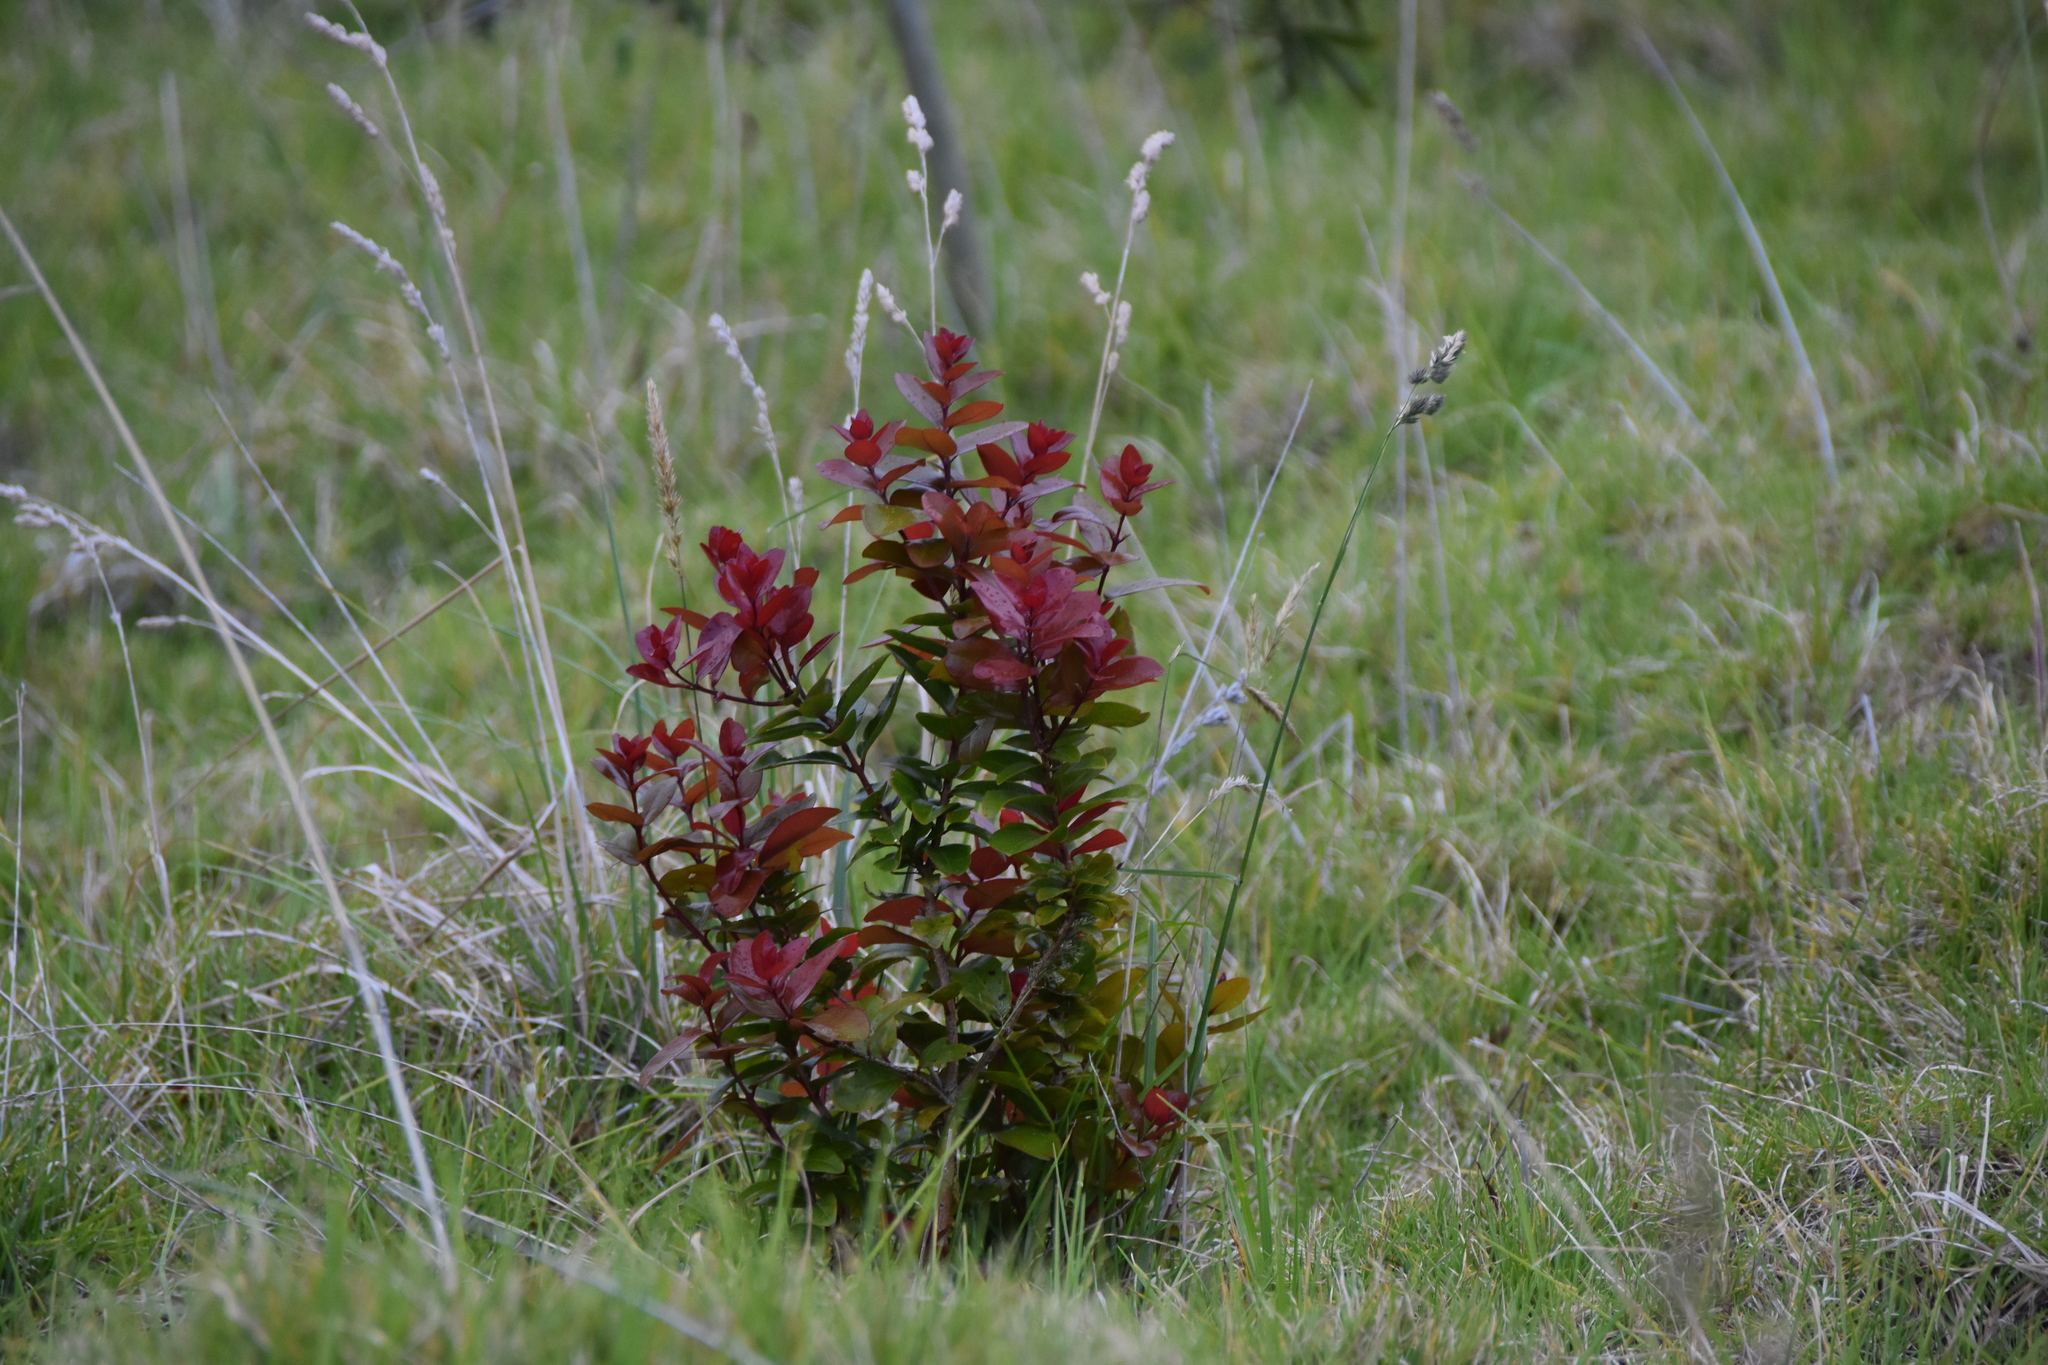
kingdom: Plantae
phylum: Tracheophyta
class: Magnoliopsida
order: Myrtales
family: Myrtaceae
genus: Metrosideros
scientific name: Metrosideros polymorpha
